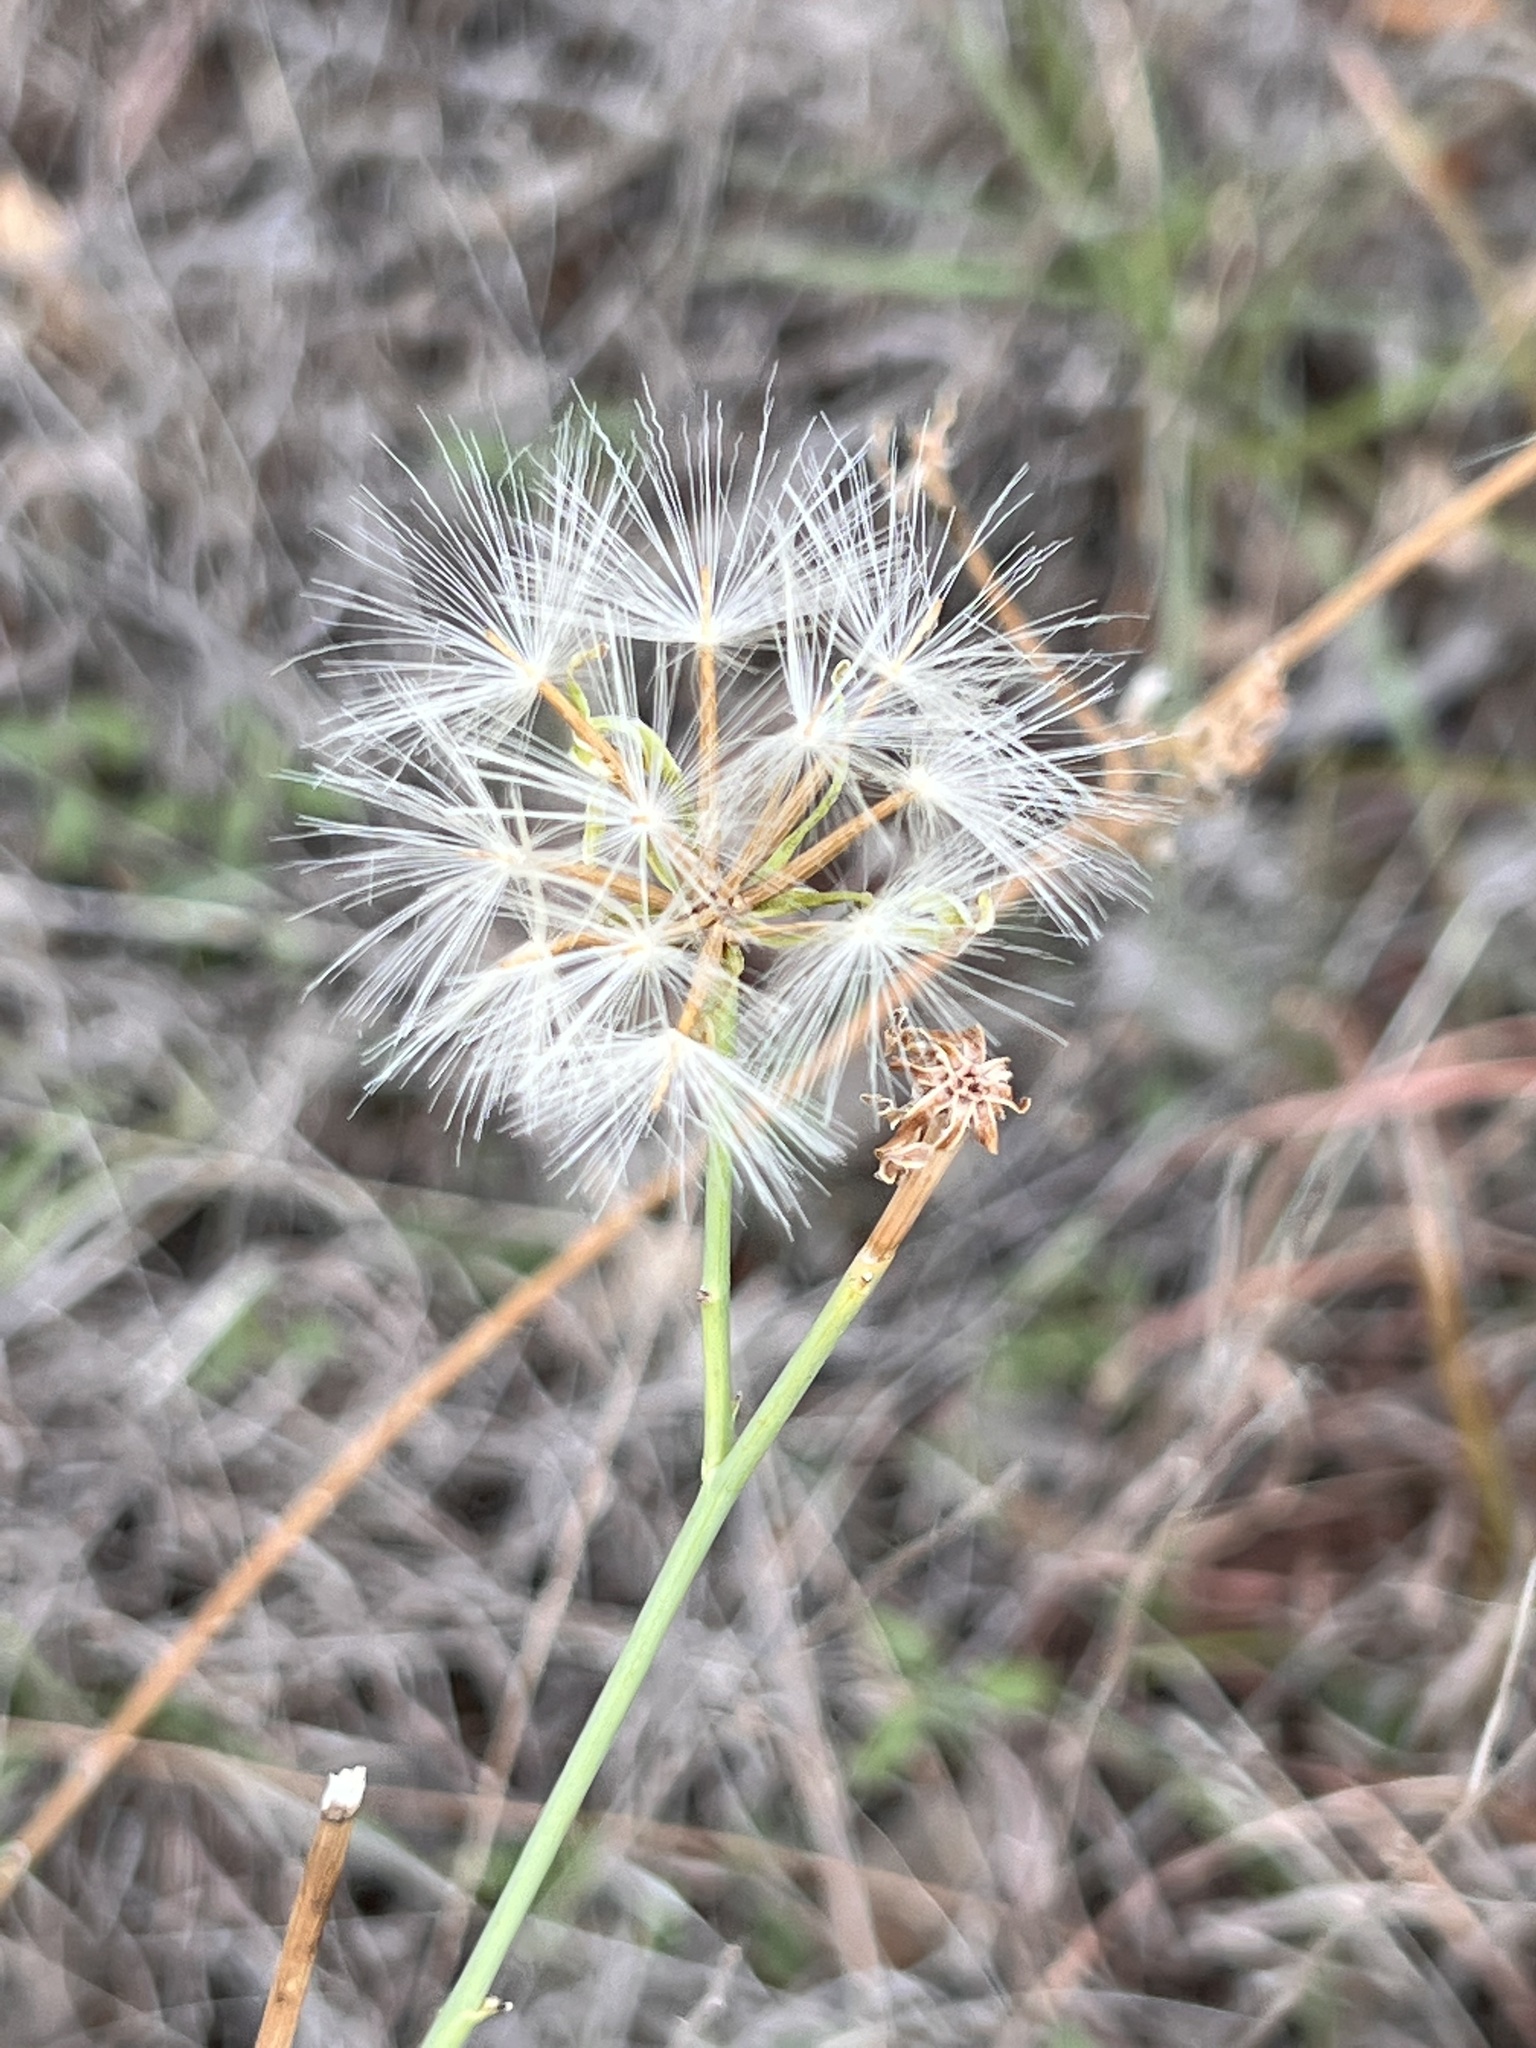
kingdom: Plantae
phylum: Tracheophyta
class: Magnoliopsida
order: Asterales
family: Asteraceae
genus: Lygodesmia
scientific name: Lygodesmia texana
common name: Texas skeleton-plant
